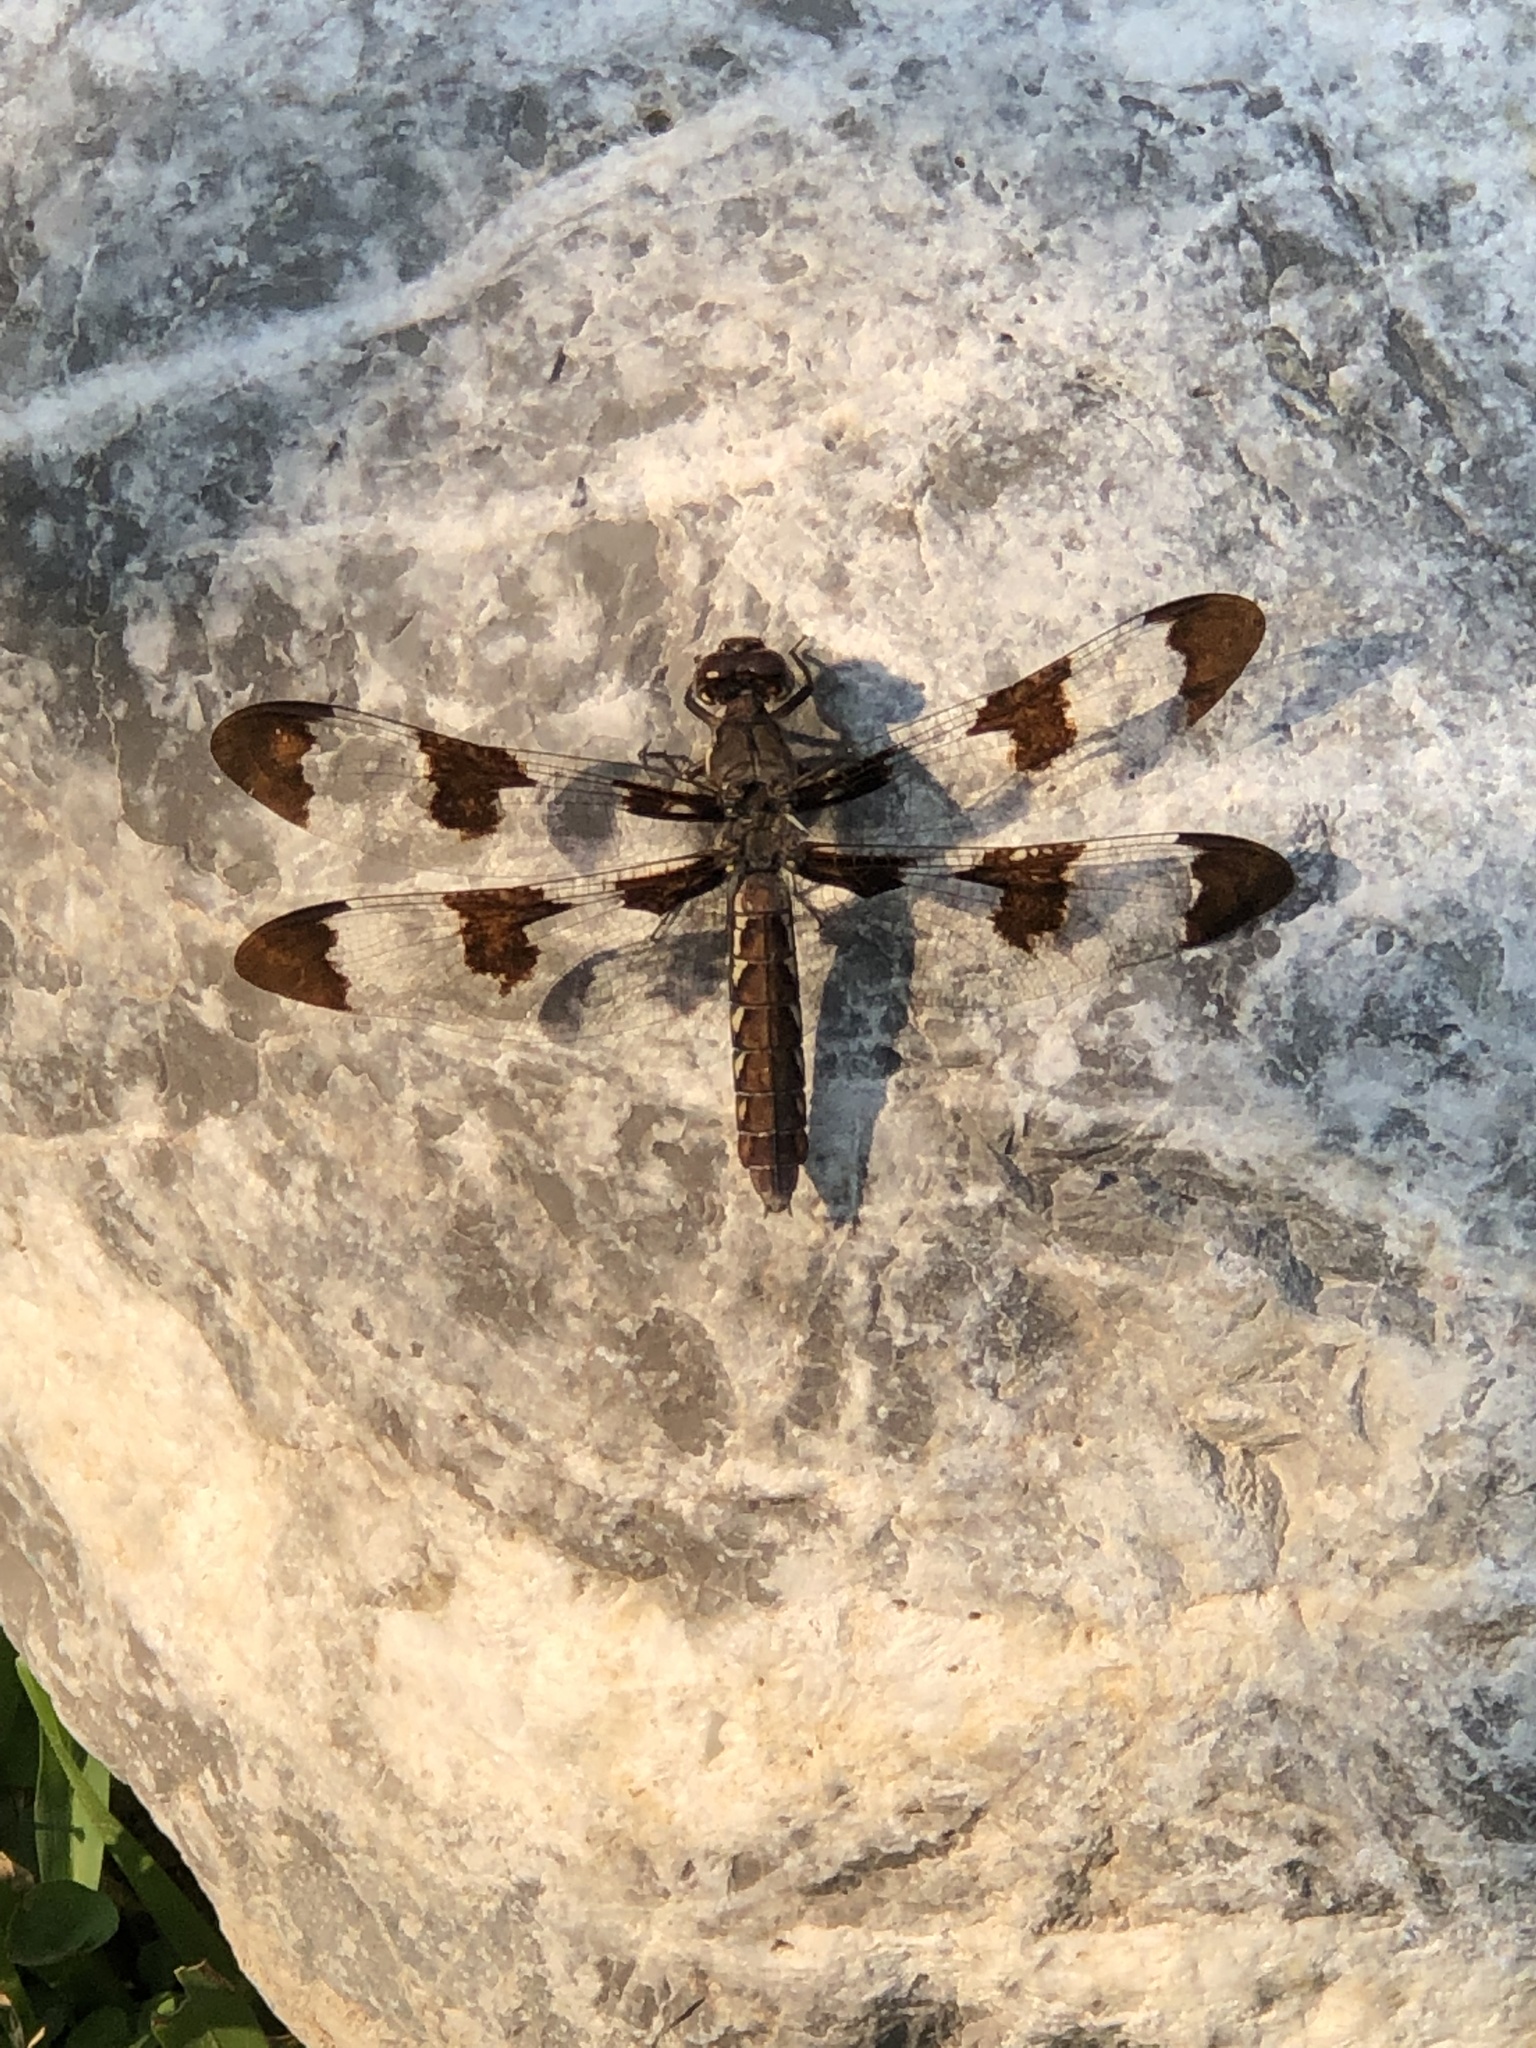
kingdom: Animalia
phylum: Arthropoda
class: Insecta
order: Odonata
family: Libellulidae
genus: Plathemis
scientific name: Plathemis lydia
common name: Common whitetail
